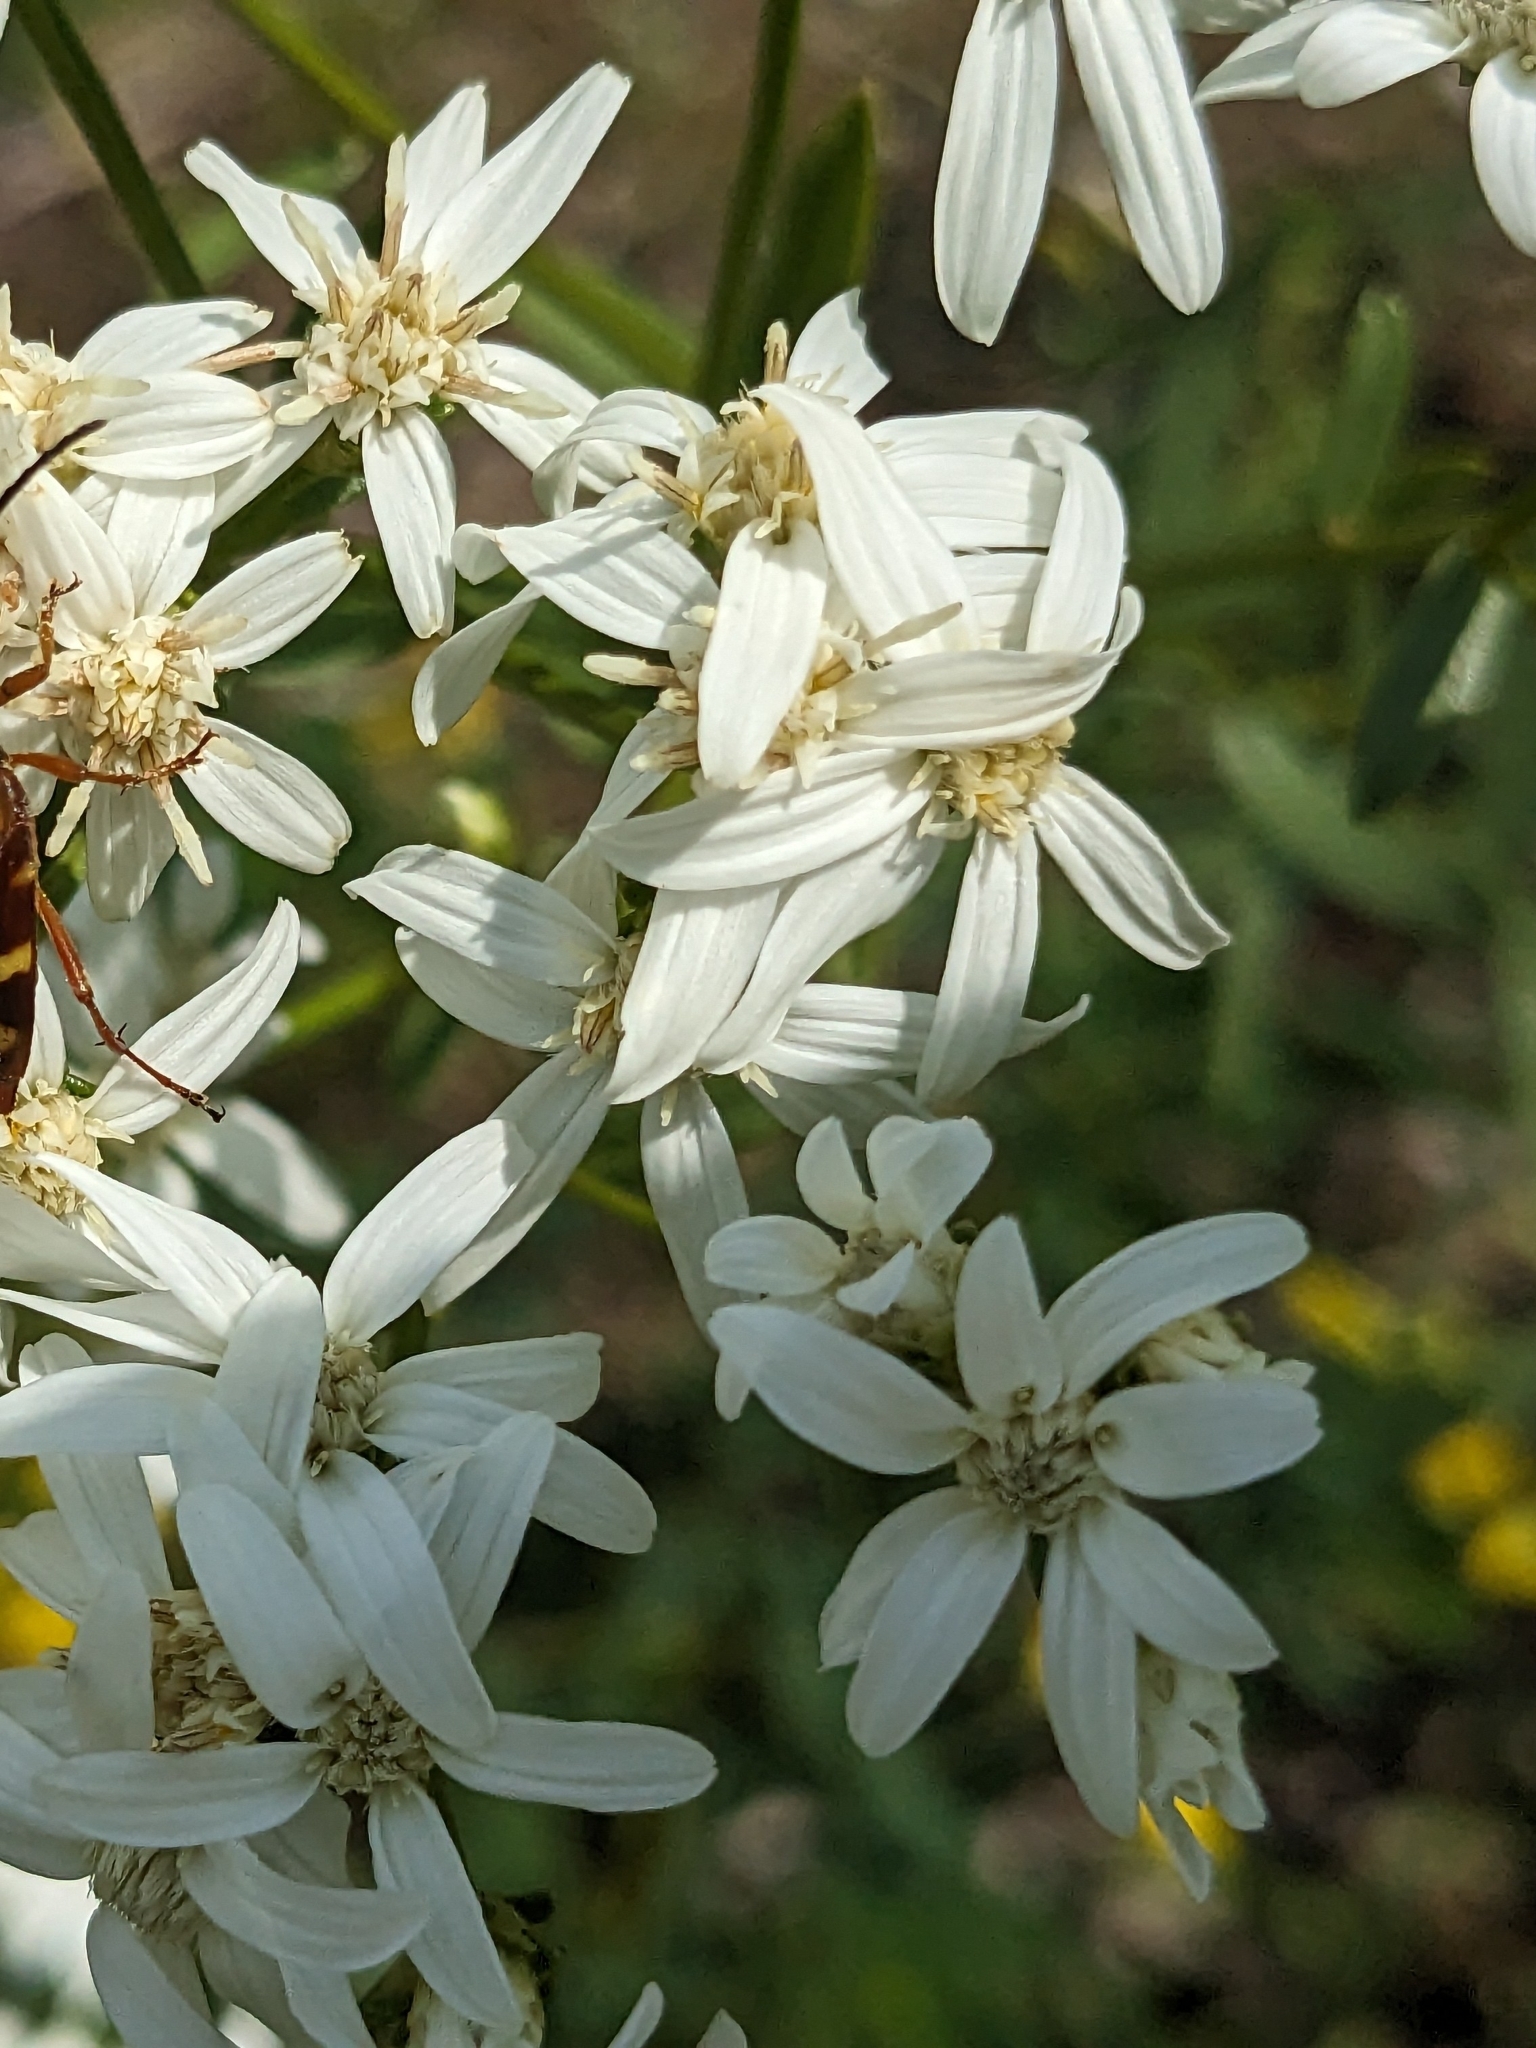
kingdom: Plantae
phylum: Tracheophyta
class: Magnoliopsida
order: Asterales
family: Asteraceae
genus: Sericocarpus
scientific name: Sericocarpus linifolius
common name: Narrow-leaf aster
